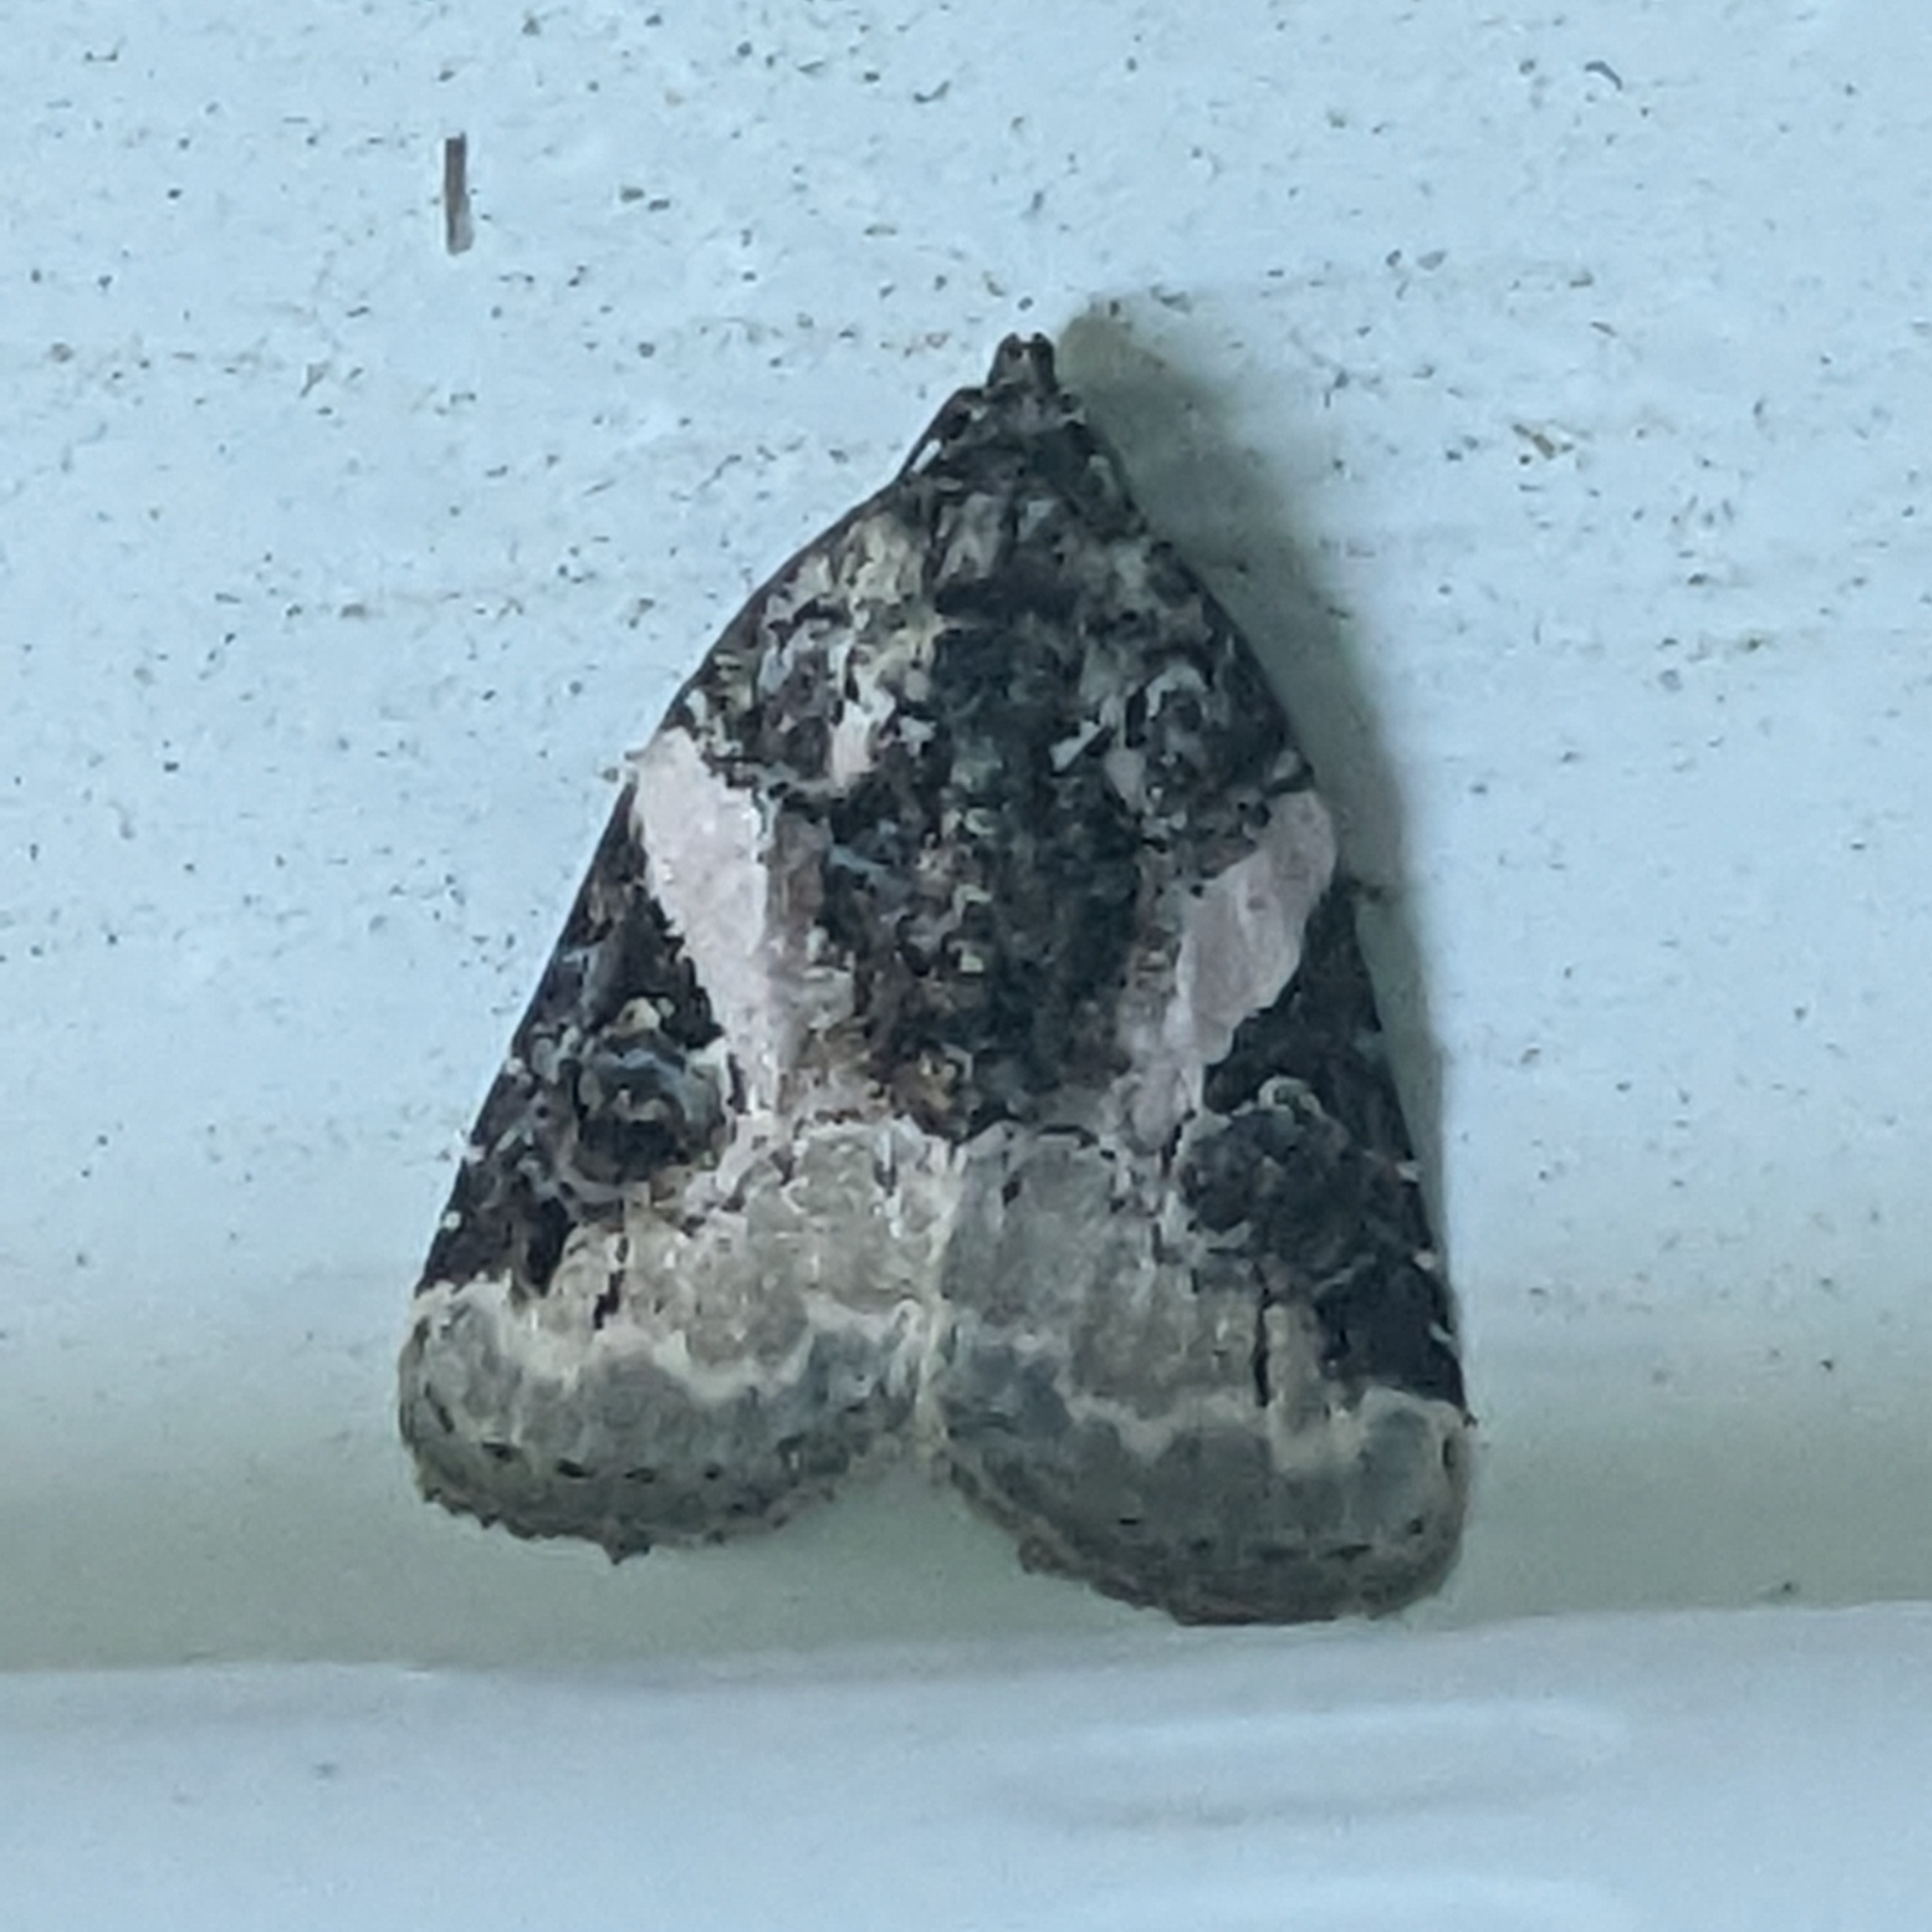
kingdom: Animalia
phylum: Arthropoda
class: Insecta
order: Lepidoptera
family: Noctuidae
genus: Pseudeustrotia
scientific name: Pseudeustrotia carneola
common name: Pink-barred lithacodia moth
